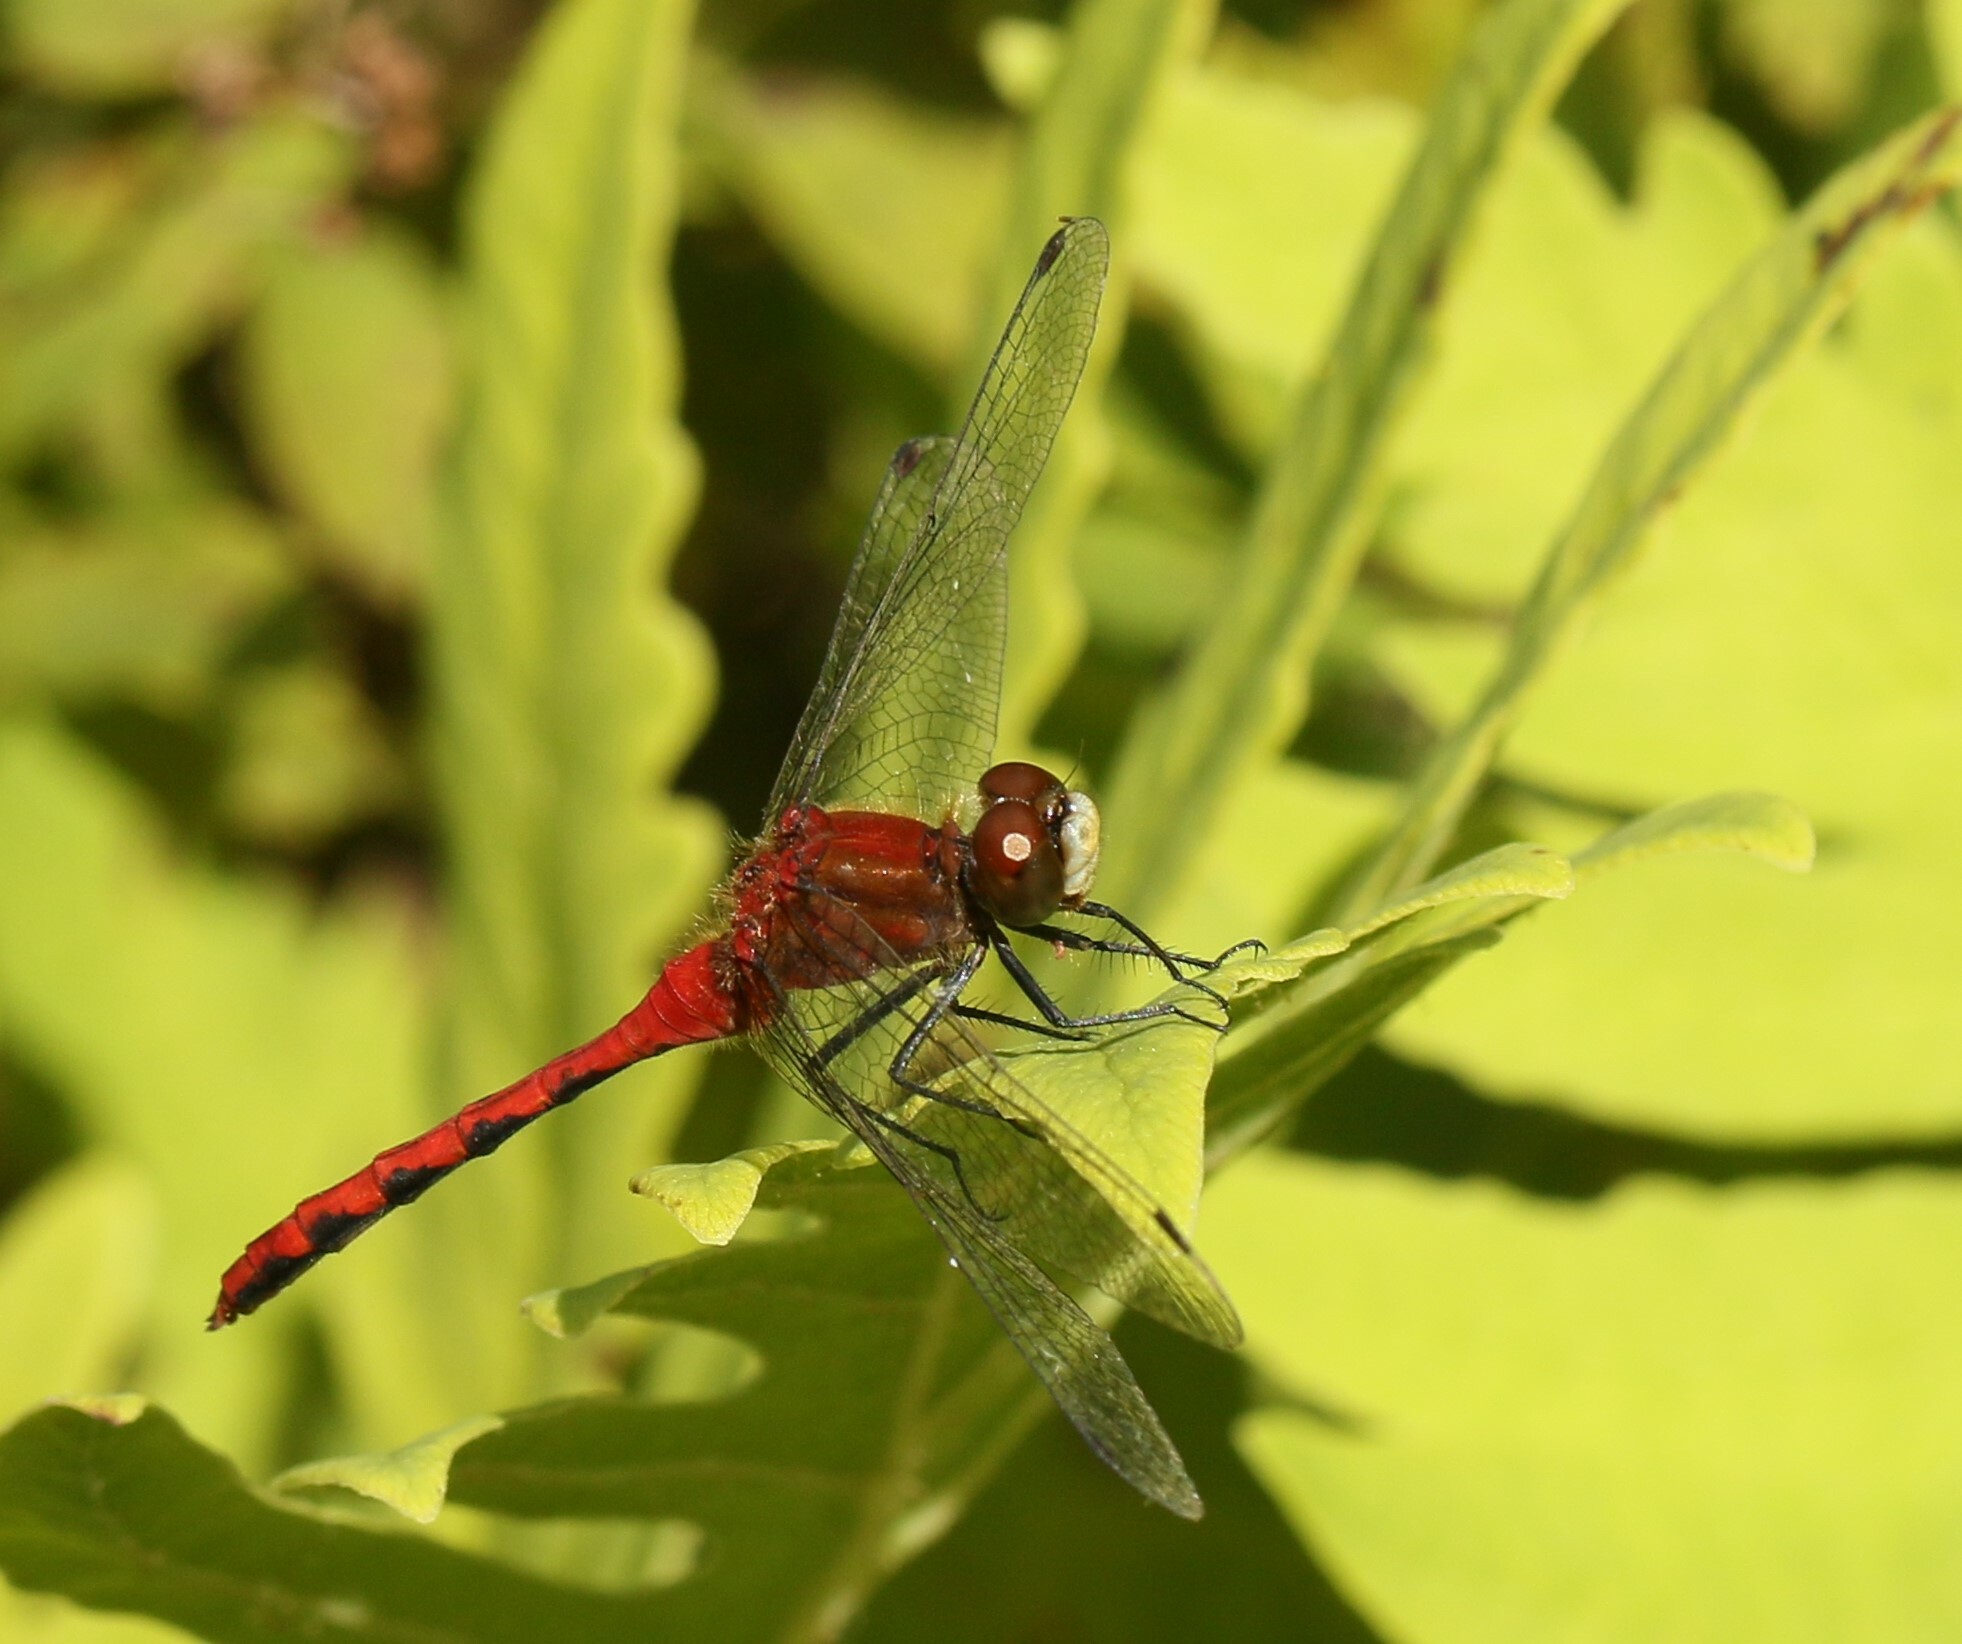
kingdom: Animalia
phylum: Arthropoda
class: Insecta
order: Odonata
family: Libellulidae
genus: Sympetrum
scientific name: Sympetrum obtrusum
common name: White-faced meadowhawk
